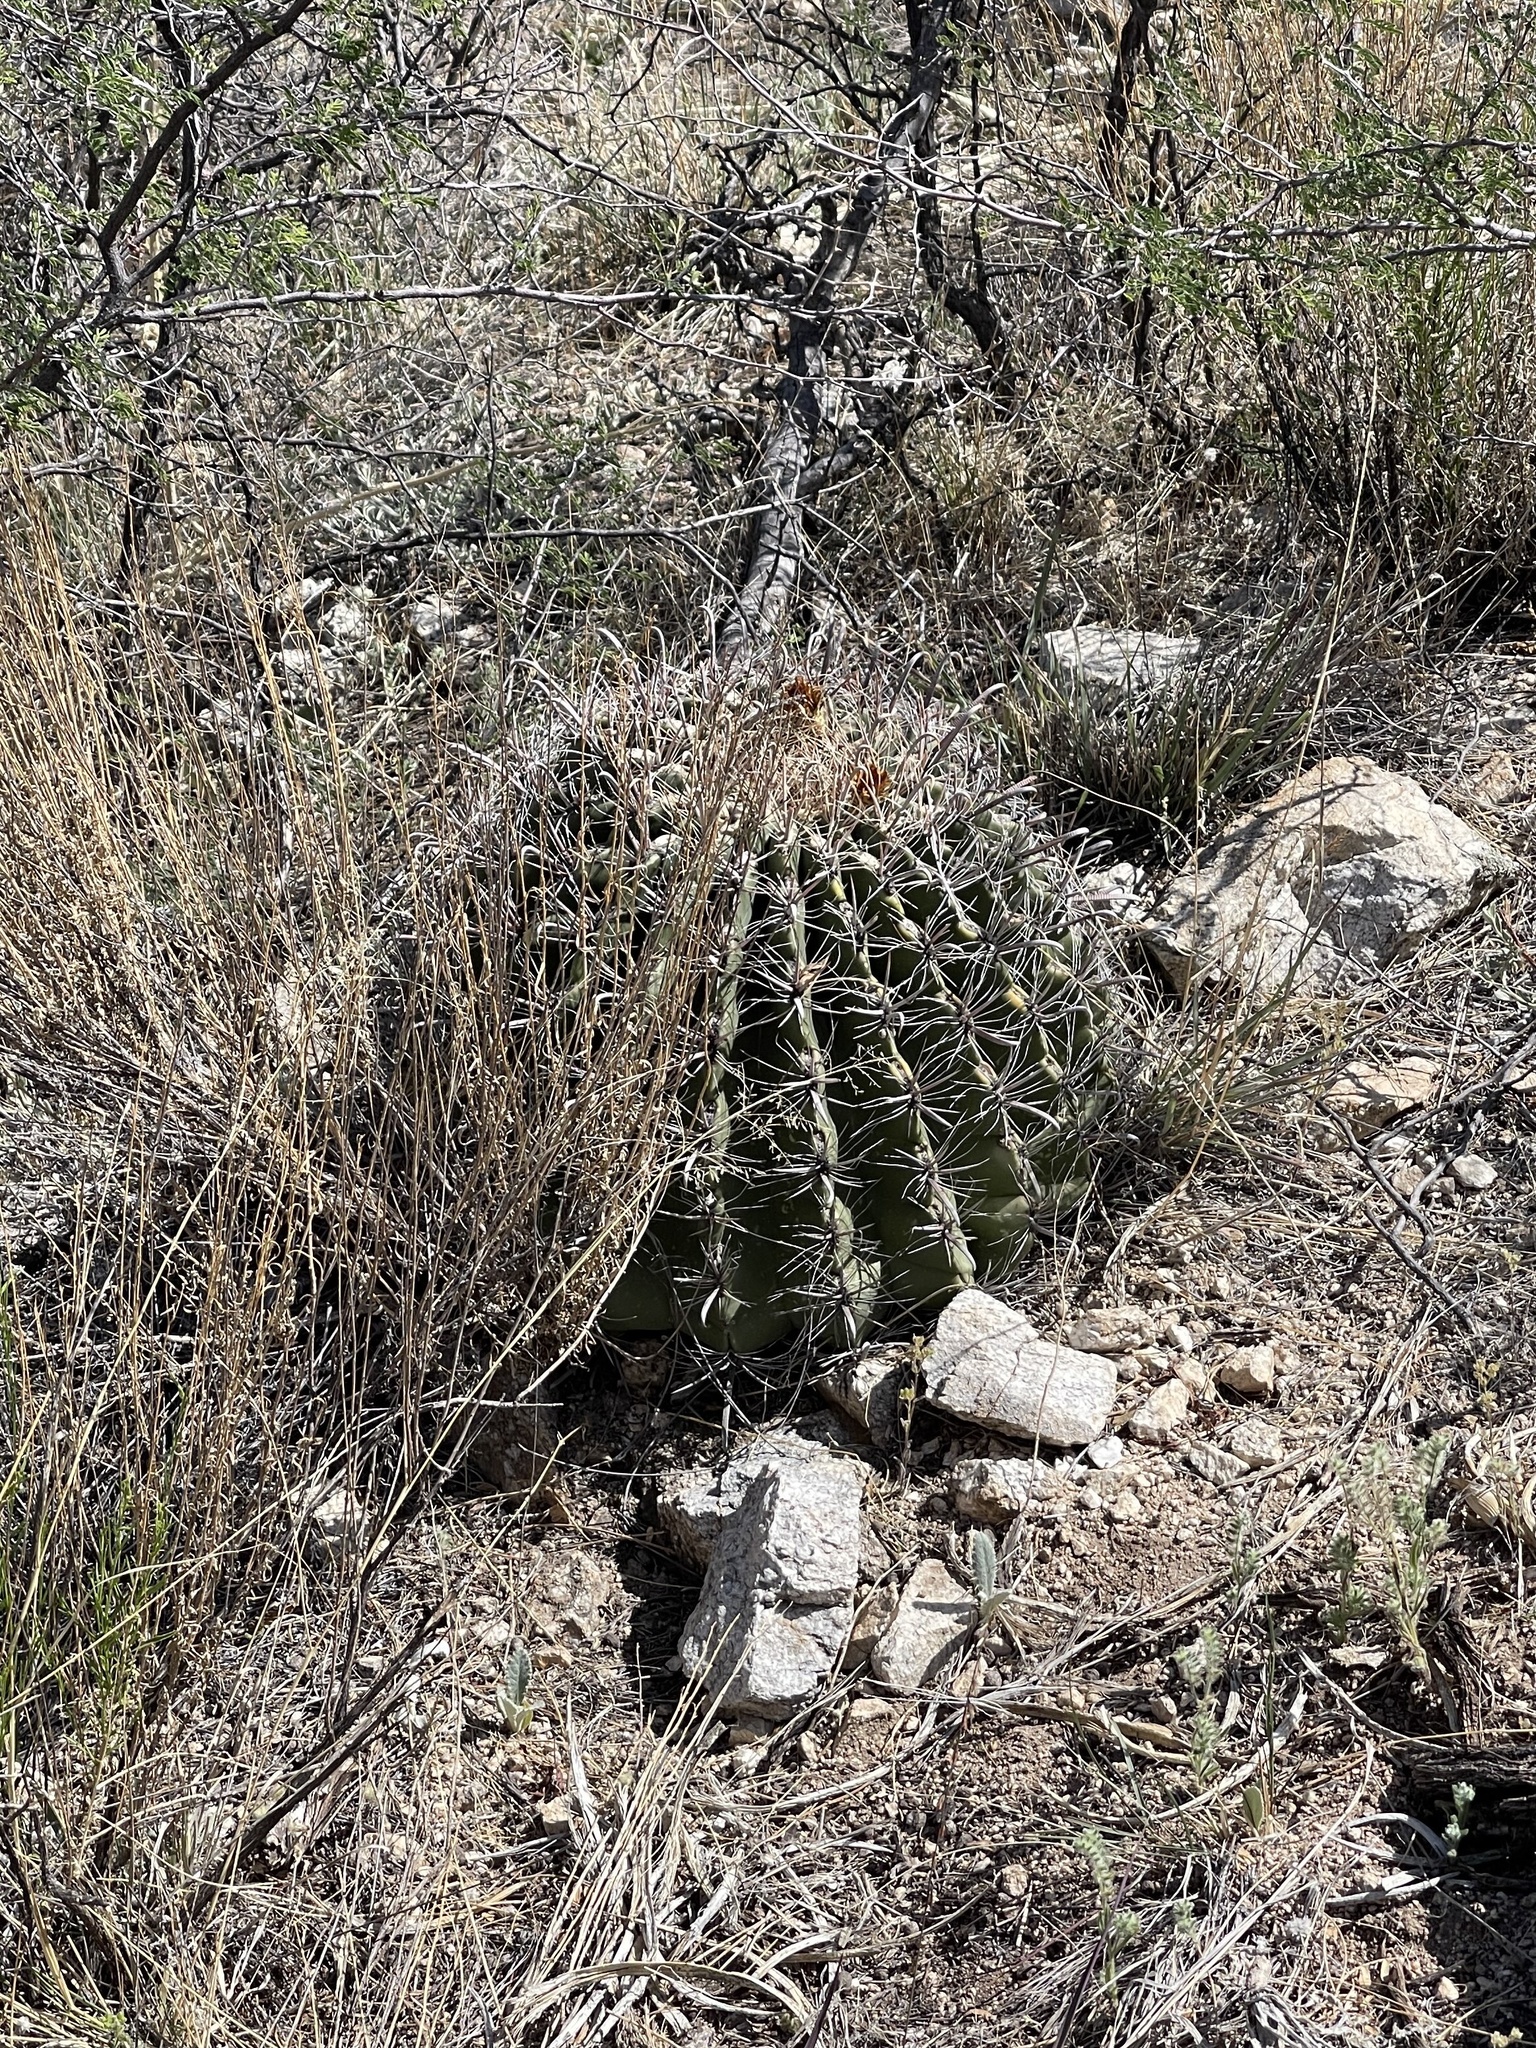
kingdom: Plantae
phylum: Tracheophyta
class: Magnoliopsida
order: Caryophyllales
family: Cactaceae
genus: Ferocactus
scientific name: Ferocactus wislizeni
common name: Candy barrel cactus
